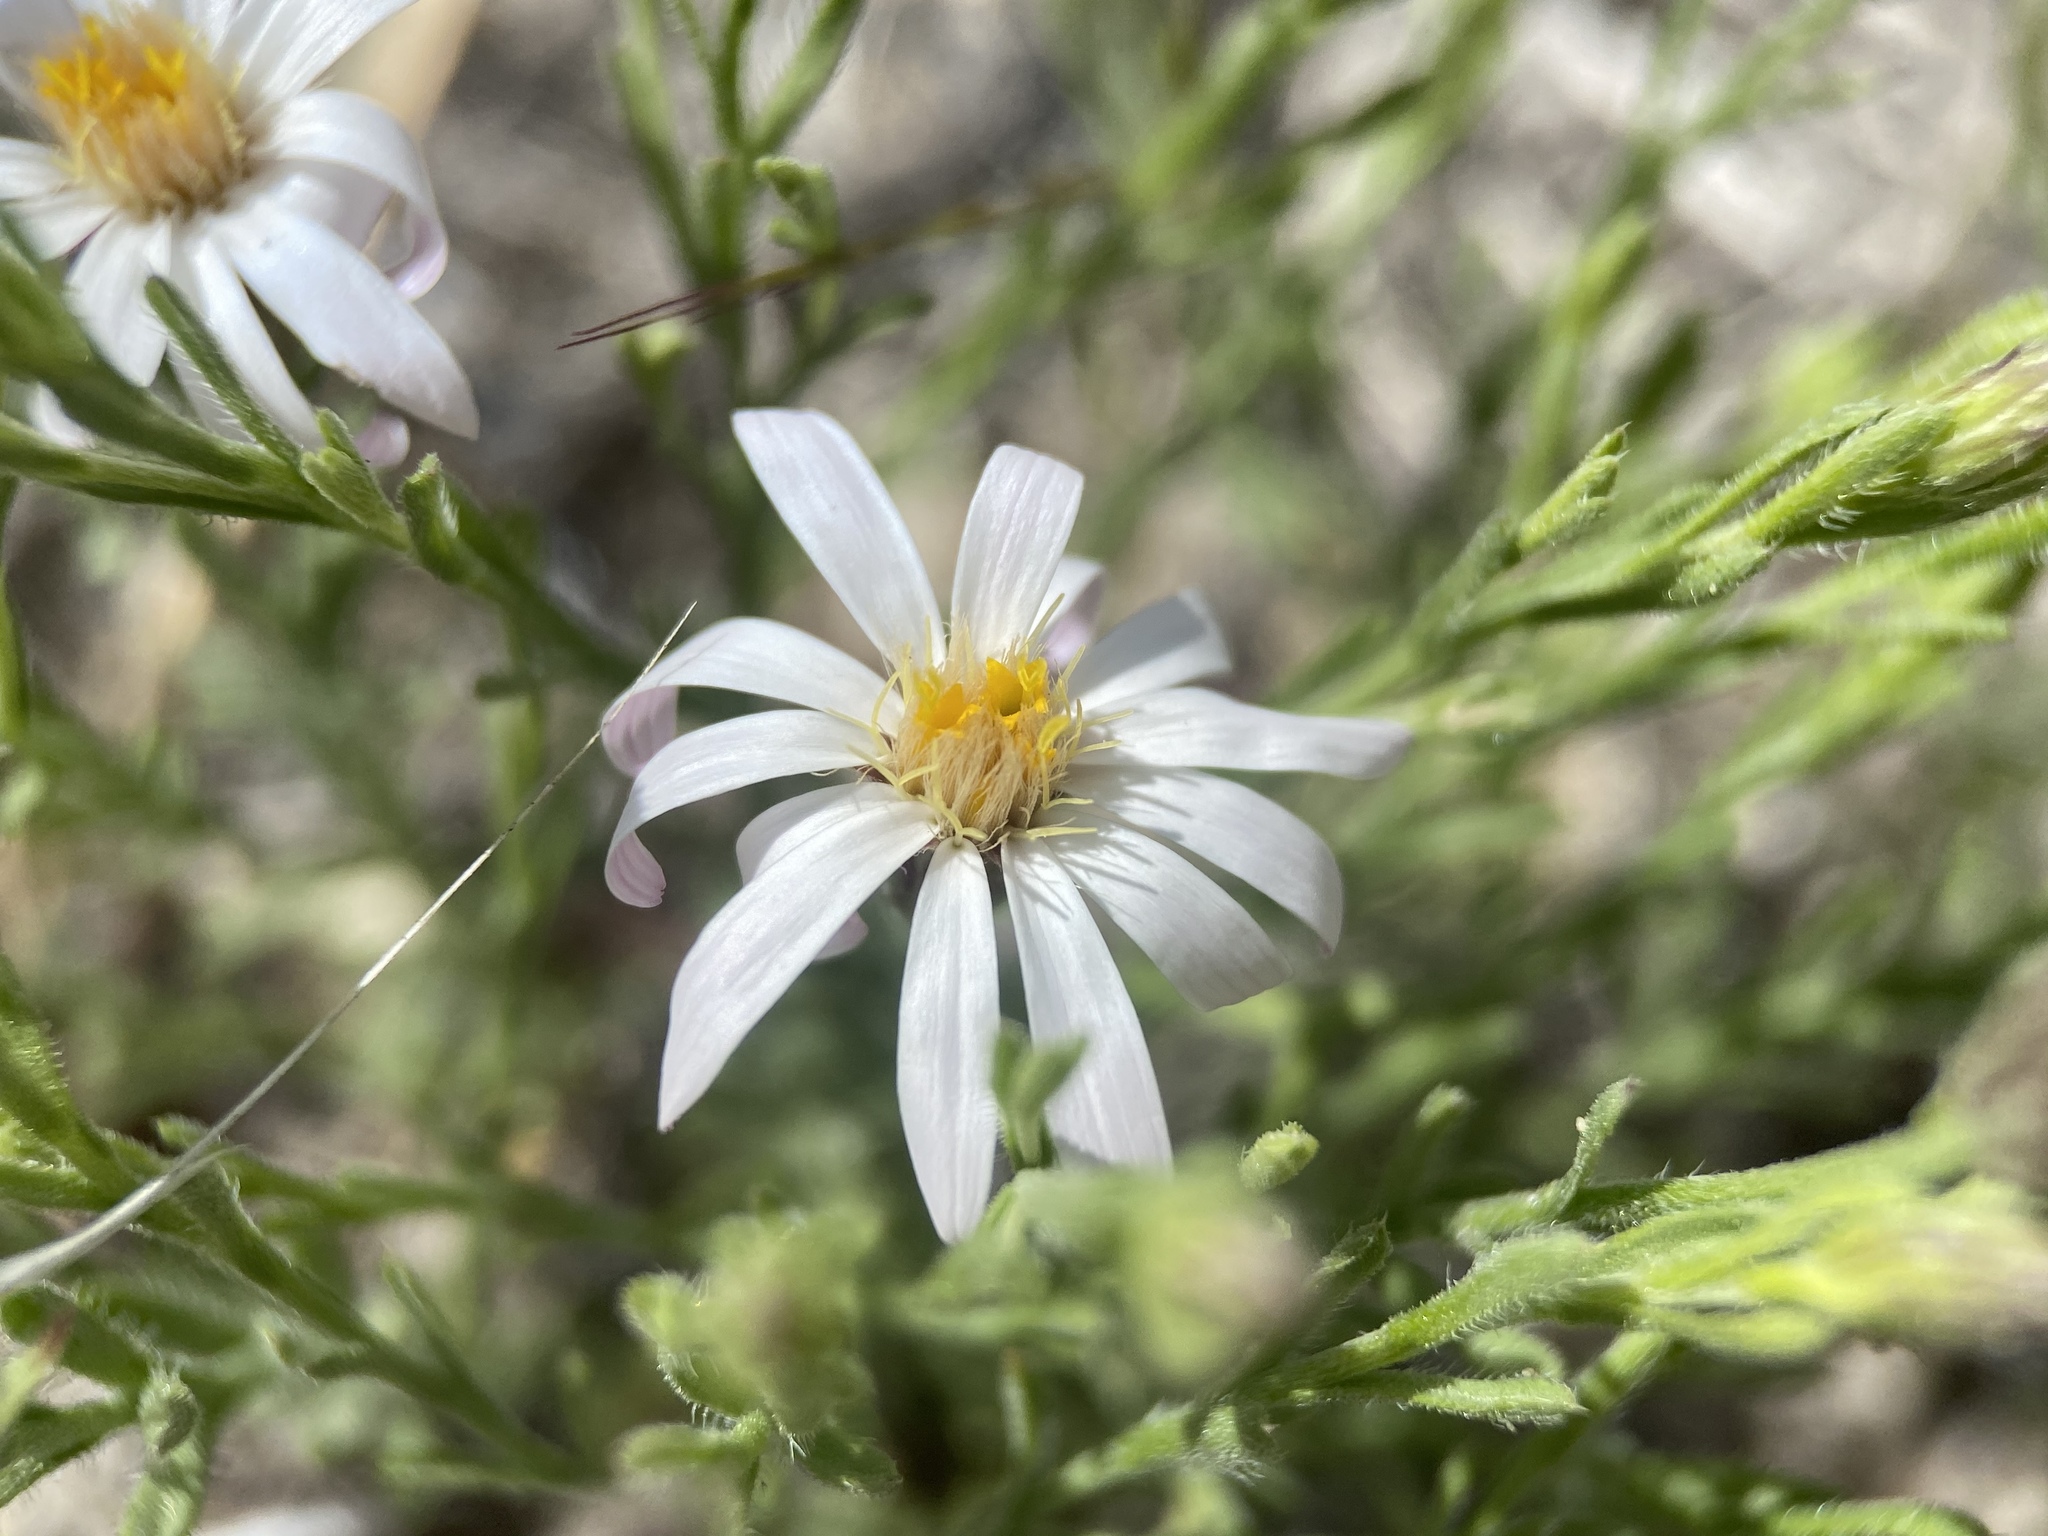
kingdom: Plantae
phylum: Tracheophyta
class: Magnoliopsida
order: Asterales
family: Asteraceae
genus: Chaetopappa
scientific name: Chaetopappa ericoides
